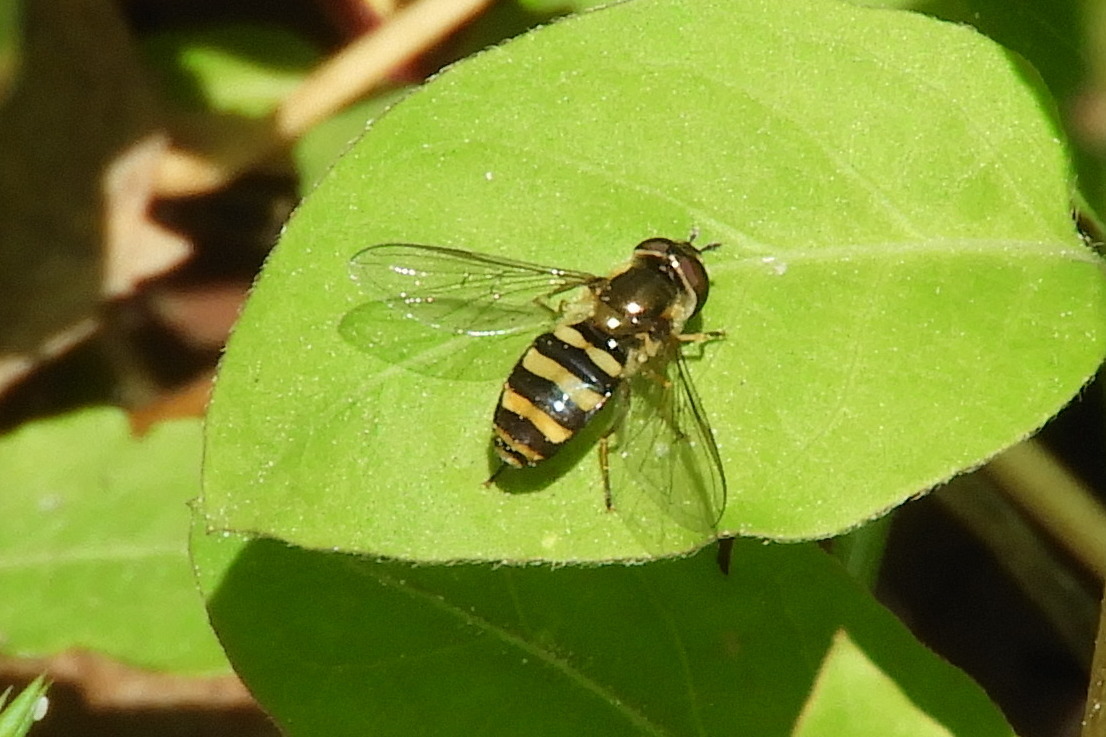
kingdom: Animalia
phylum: Arthropoda
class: Insecta
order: Diptera
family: Syrphidae
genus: Eupeodes
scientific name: Eupeodes
